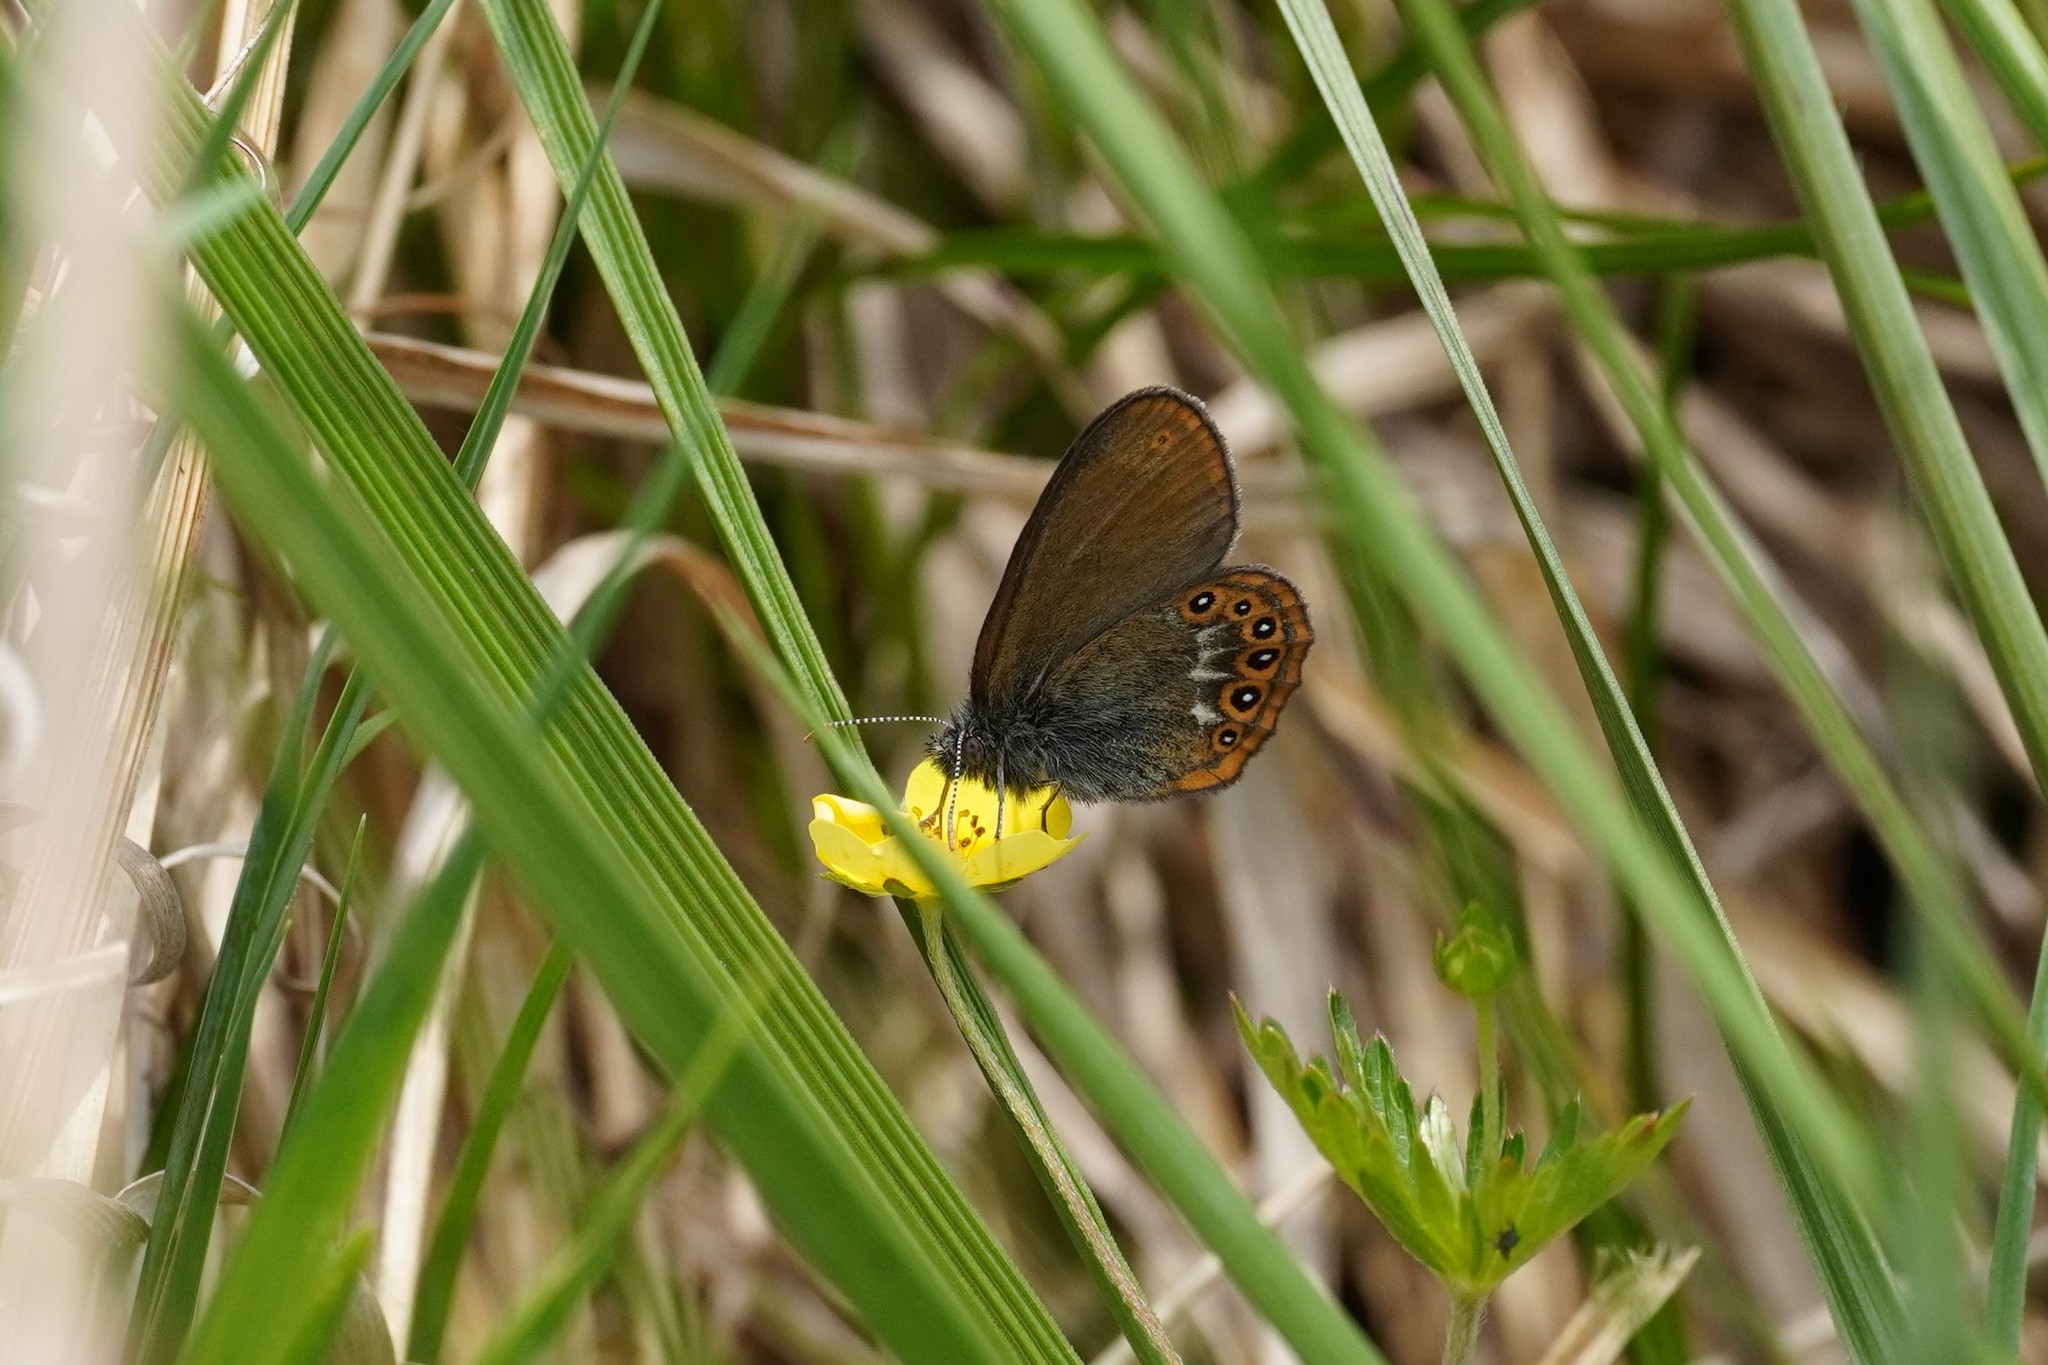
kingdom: Animalia
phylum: Arthropoda
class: Insecta
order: Lepidoptera
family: Nymphalidae
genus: Coenonympha
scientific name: Coenonympha hero
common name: Scarce heath
